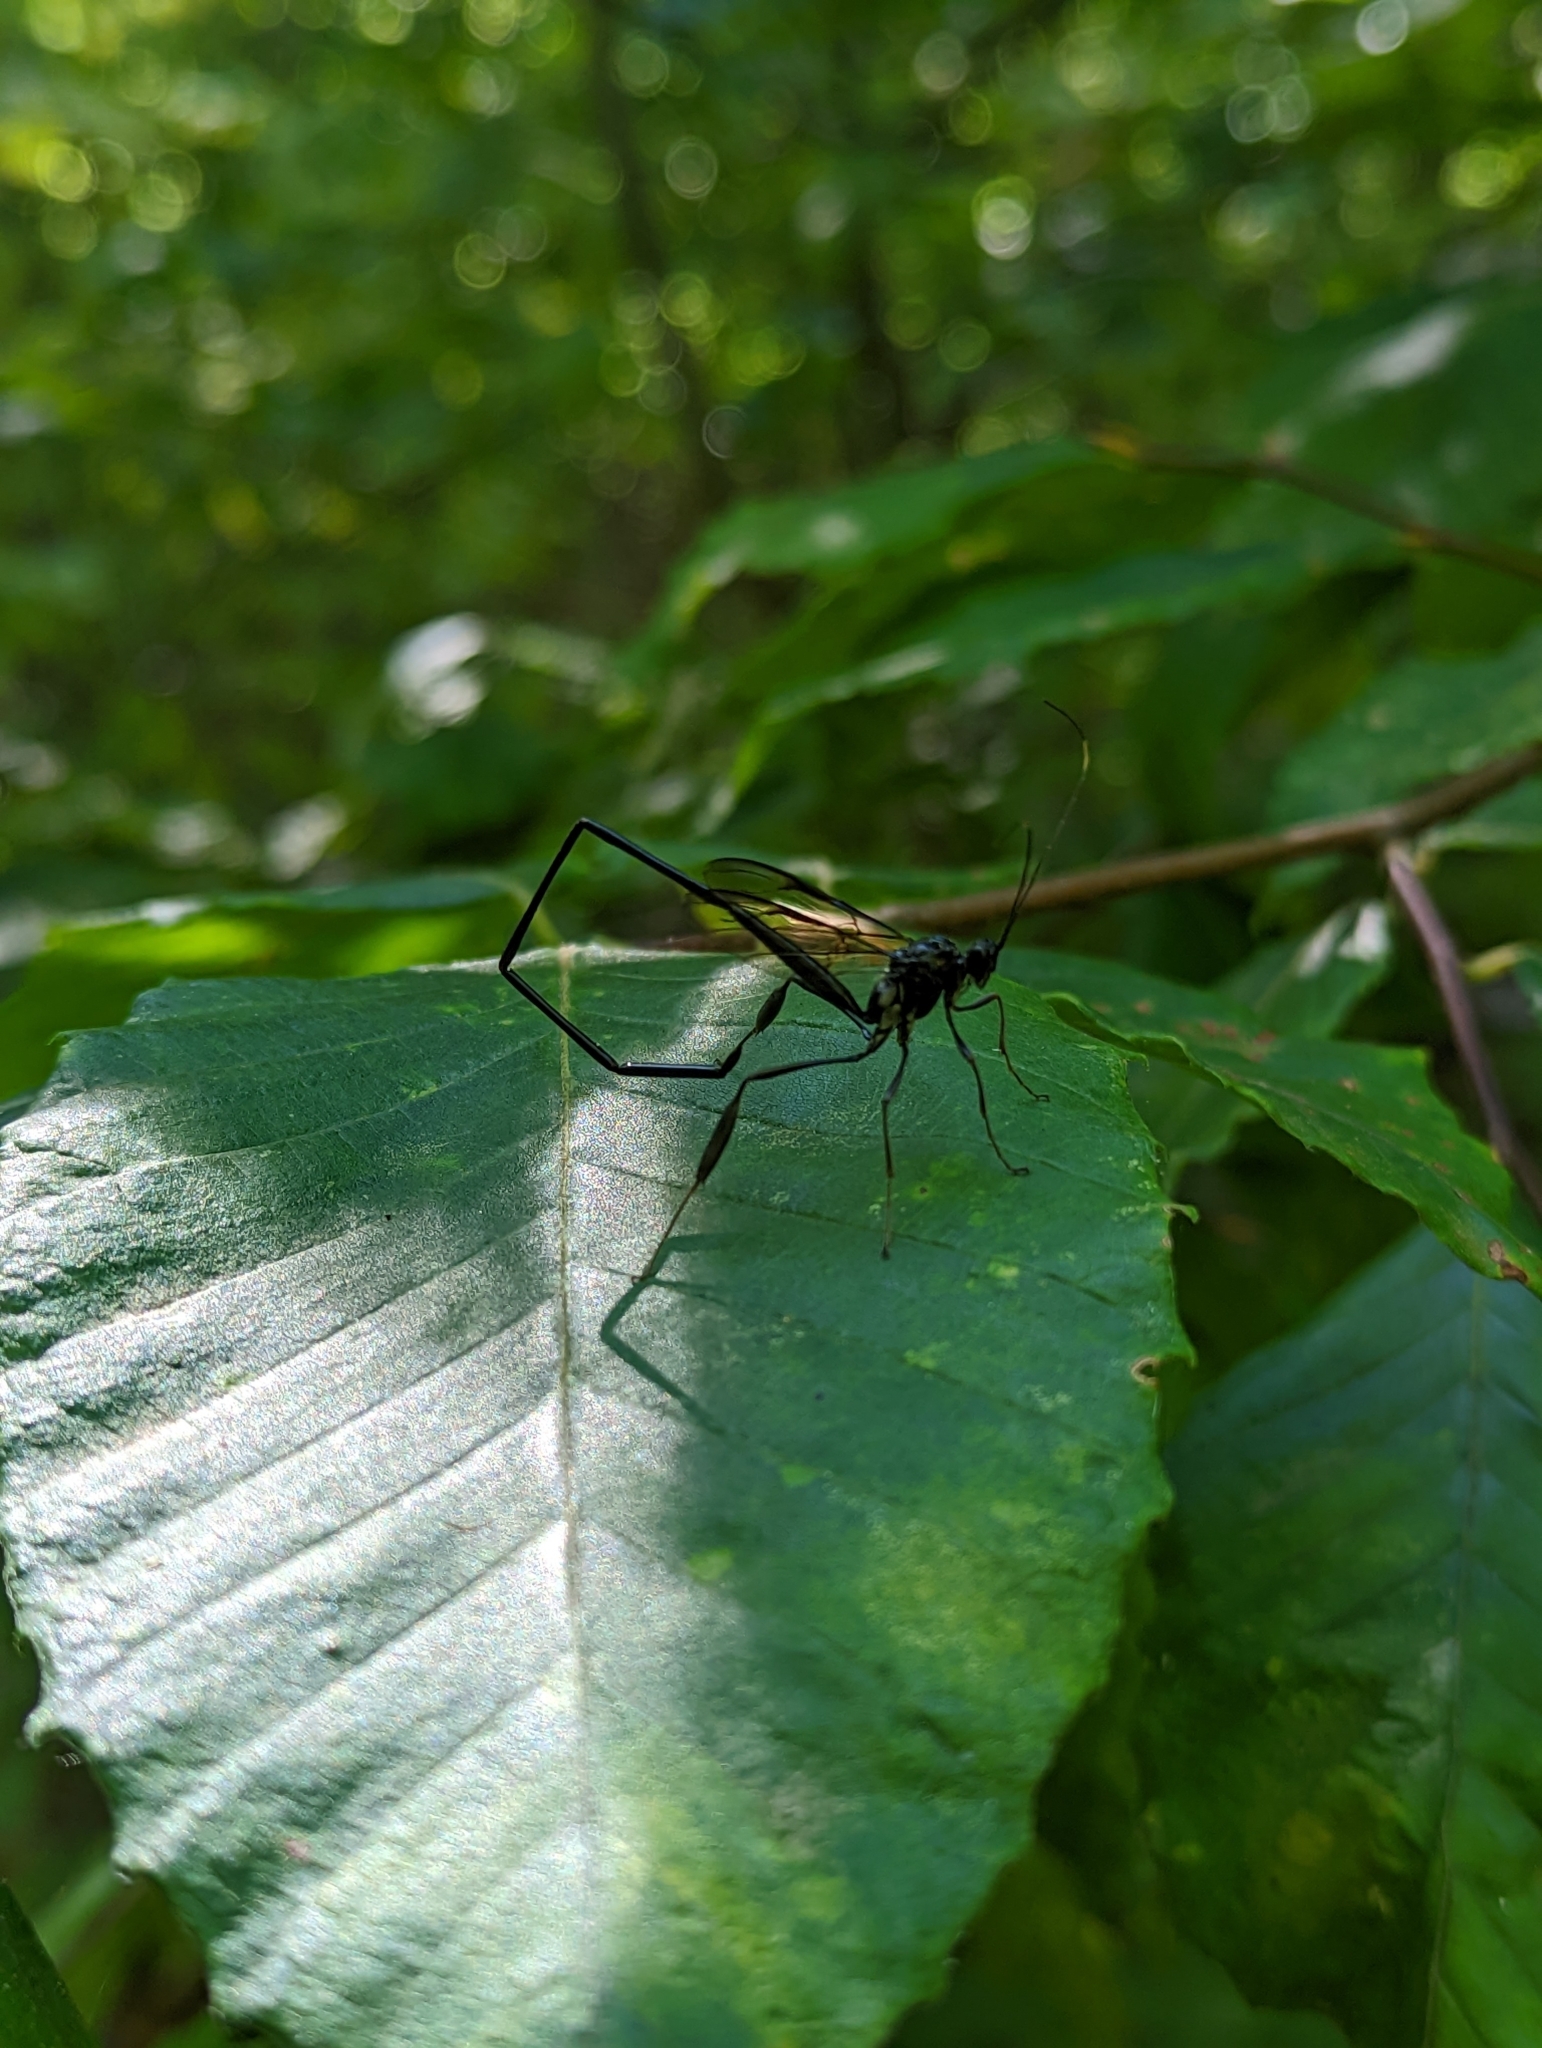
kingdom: Animalia
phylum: Arthropoda
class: Insecta
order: Hymenoptera
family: Pelecinidae
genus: Pelecinus
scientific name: Pelecinus polyturator
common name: American pelecinid wasp
